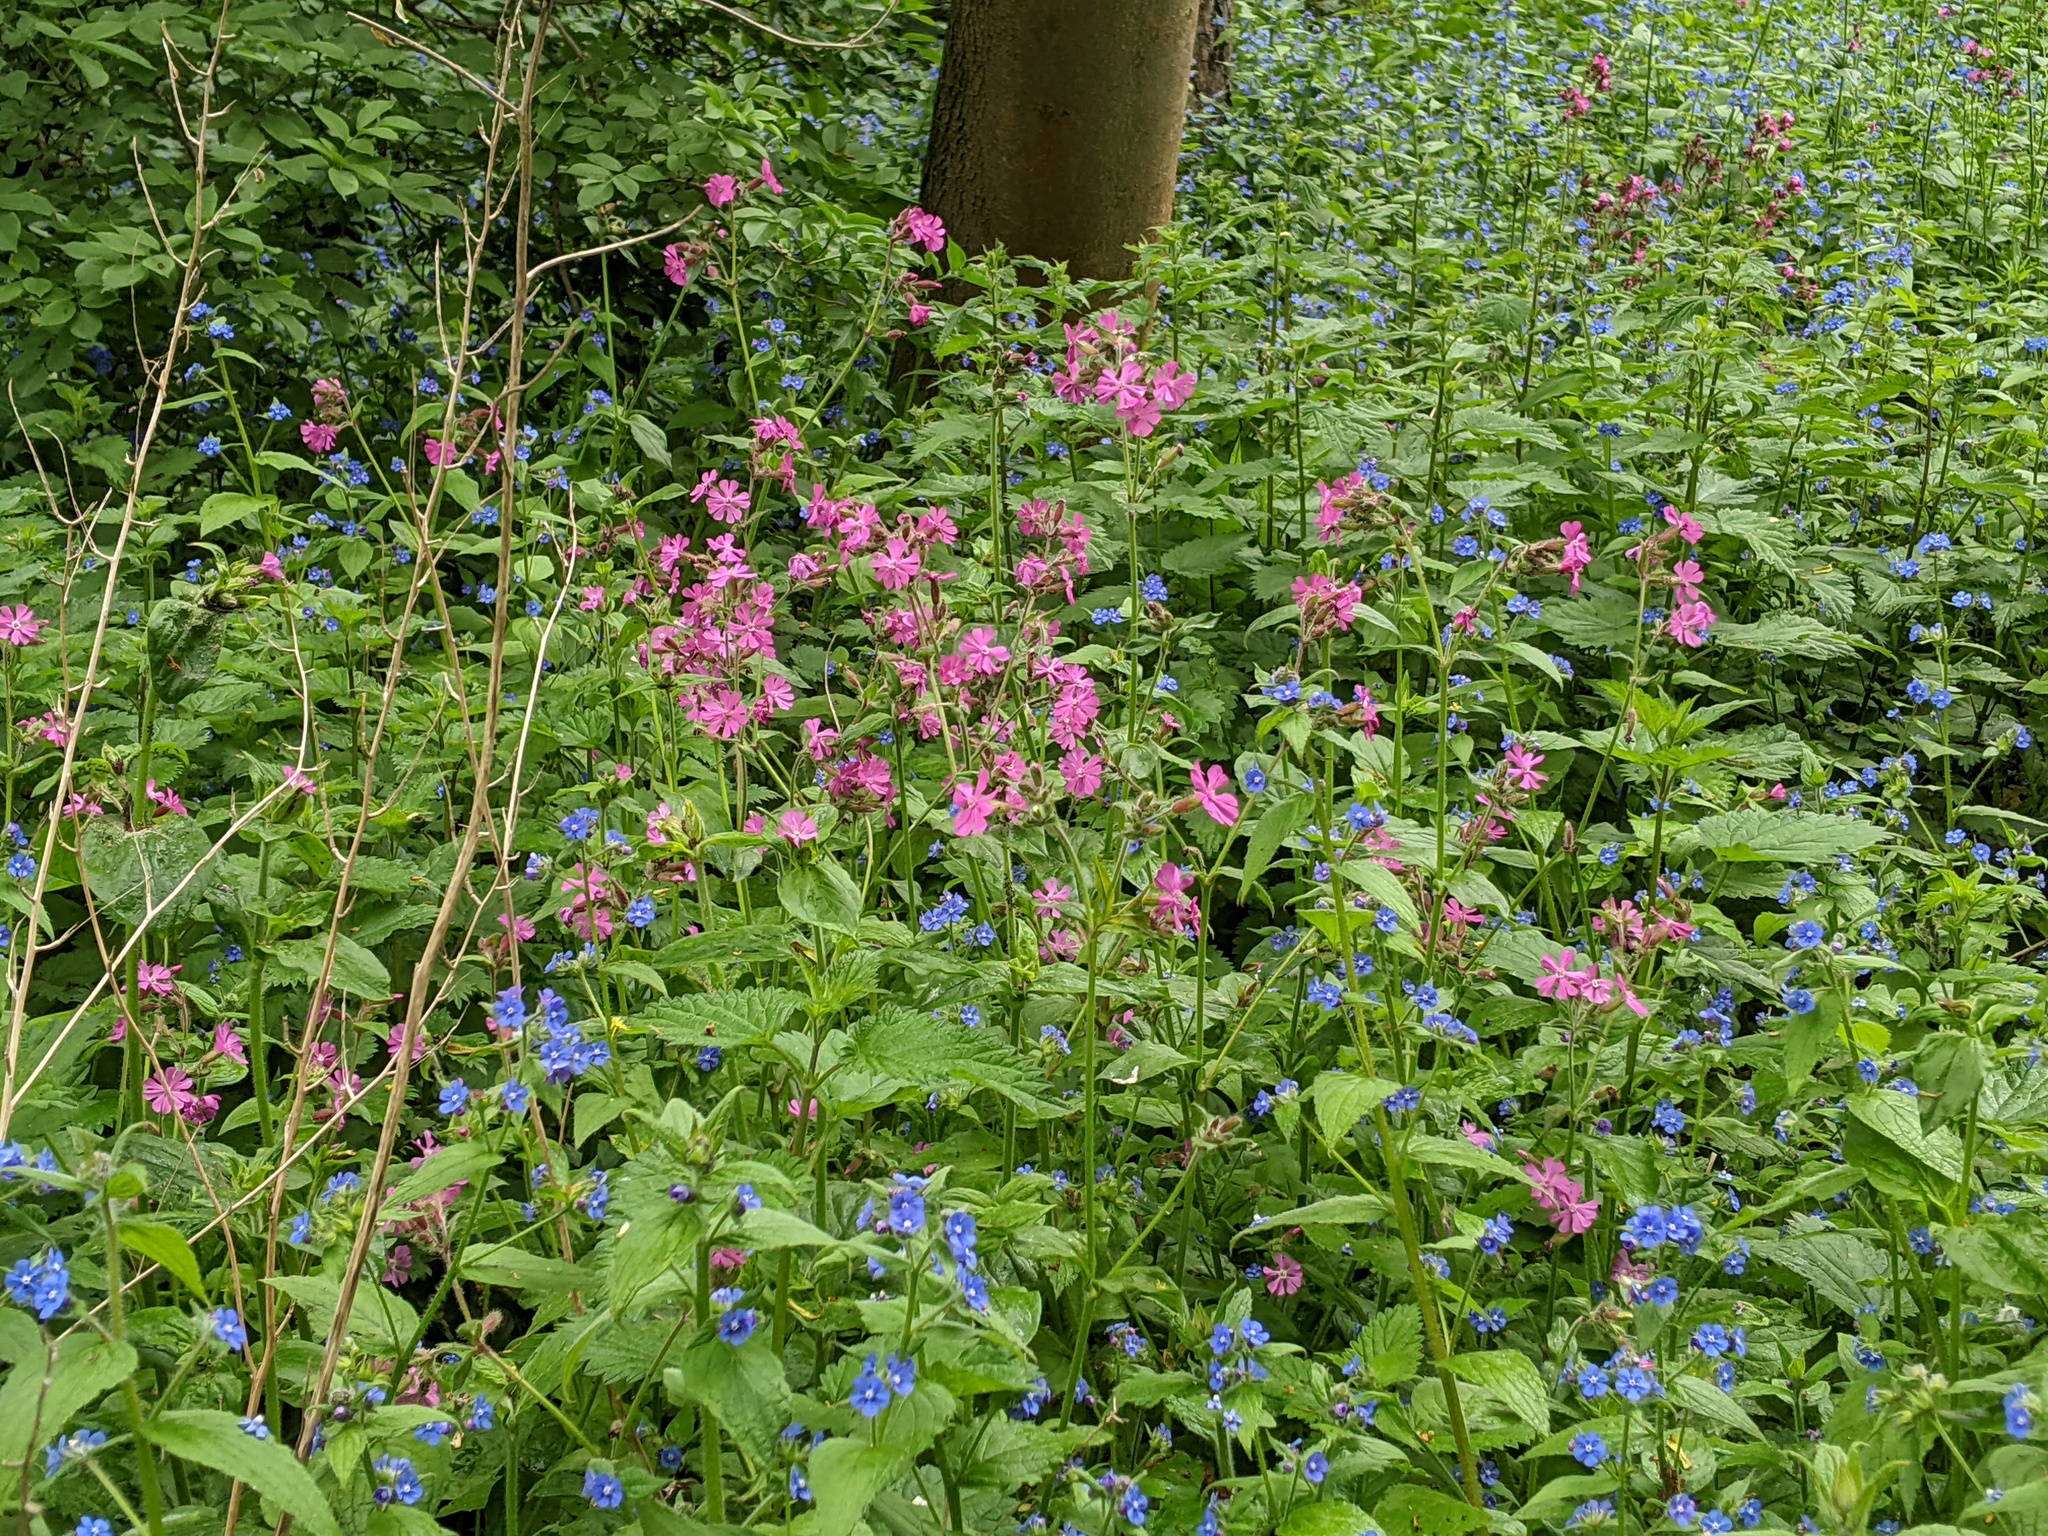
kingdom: Plantae
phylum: Tracheophyta
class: Magnoliopsida
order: Caryophyllales
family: Caryophyllaceae
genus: Silene
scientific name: Silene dioica
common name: Red campion
